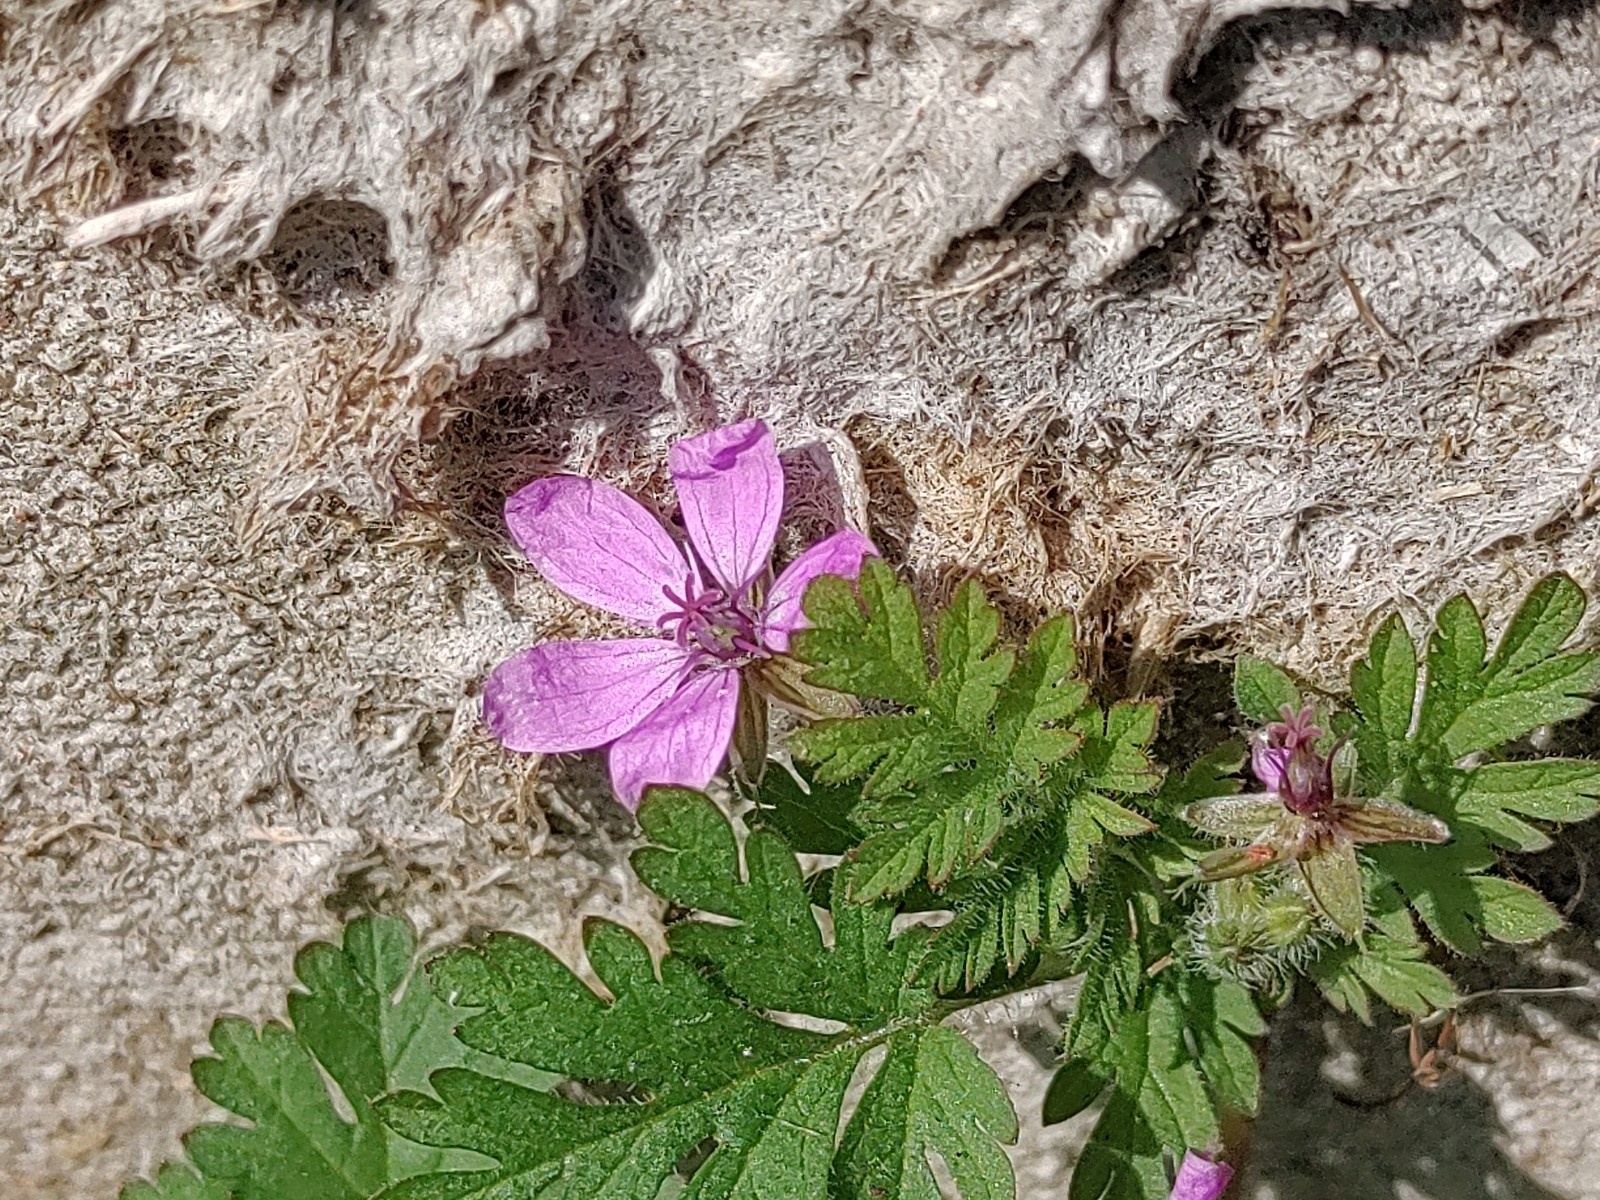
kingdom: Plantae
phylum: Tracheophyta
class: Magnoliopsida
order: Geraniales
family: Geraniaceae
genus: Erodium
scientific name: Erodium cicutarium
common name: Common stork's-bill
